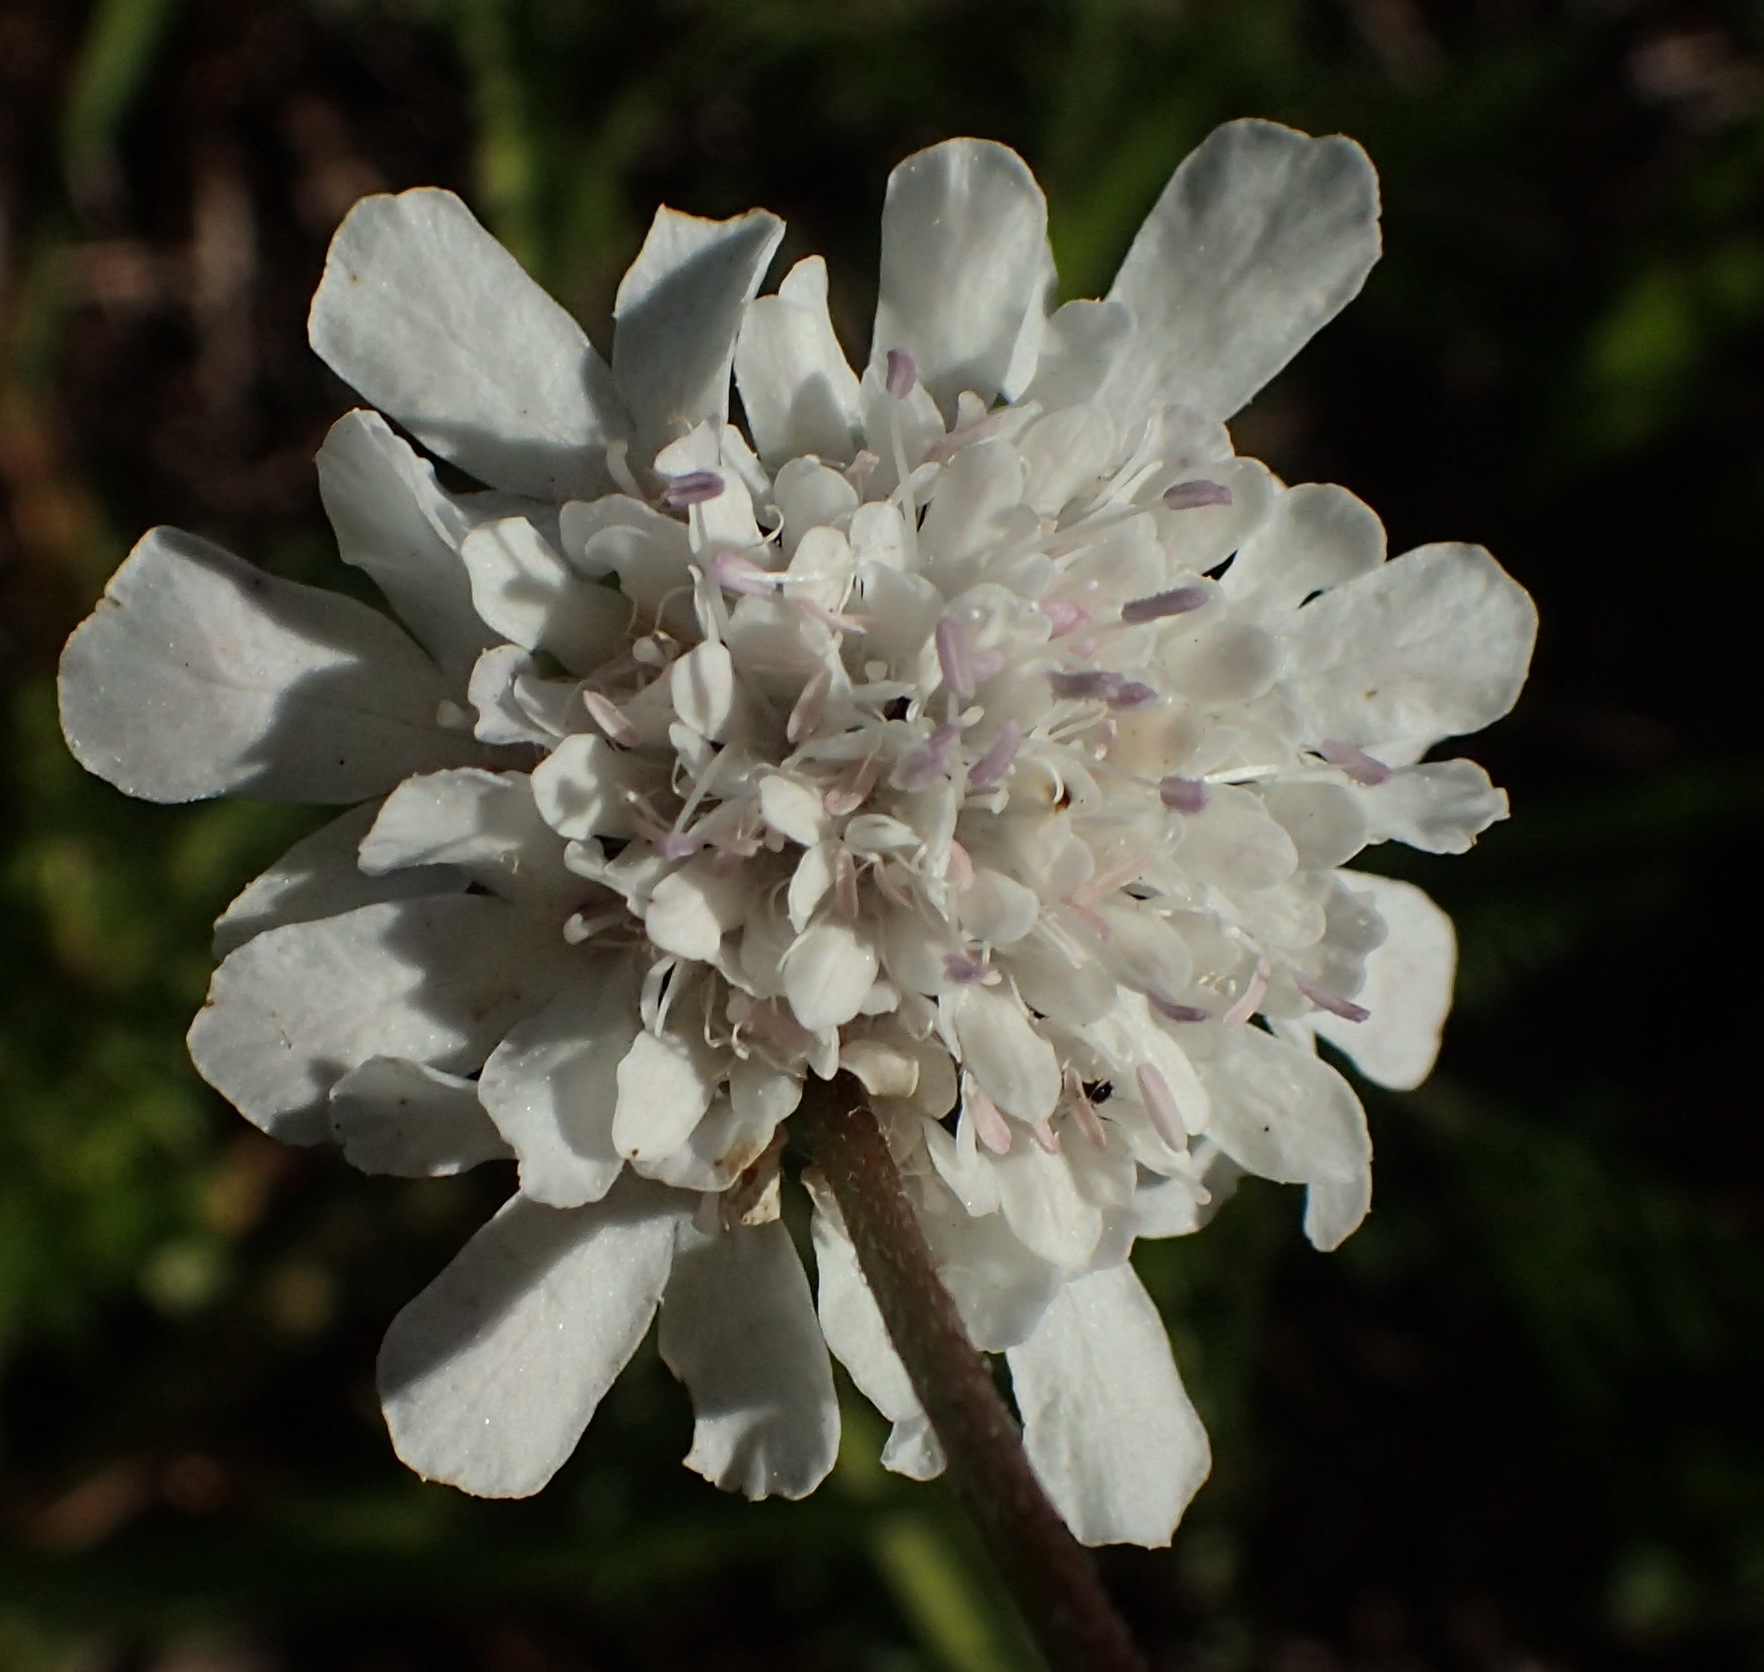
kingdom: Plantae
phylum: Tracheophyta
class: Magnoliopsida
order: Dipsacales
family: Caprifoliaceae
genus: Scabiosa
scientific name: Scabiosa columbaria
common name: Small scabious
